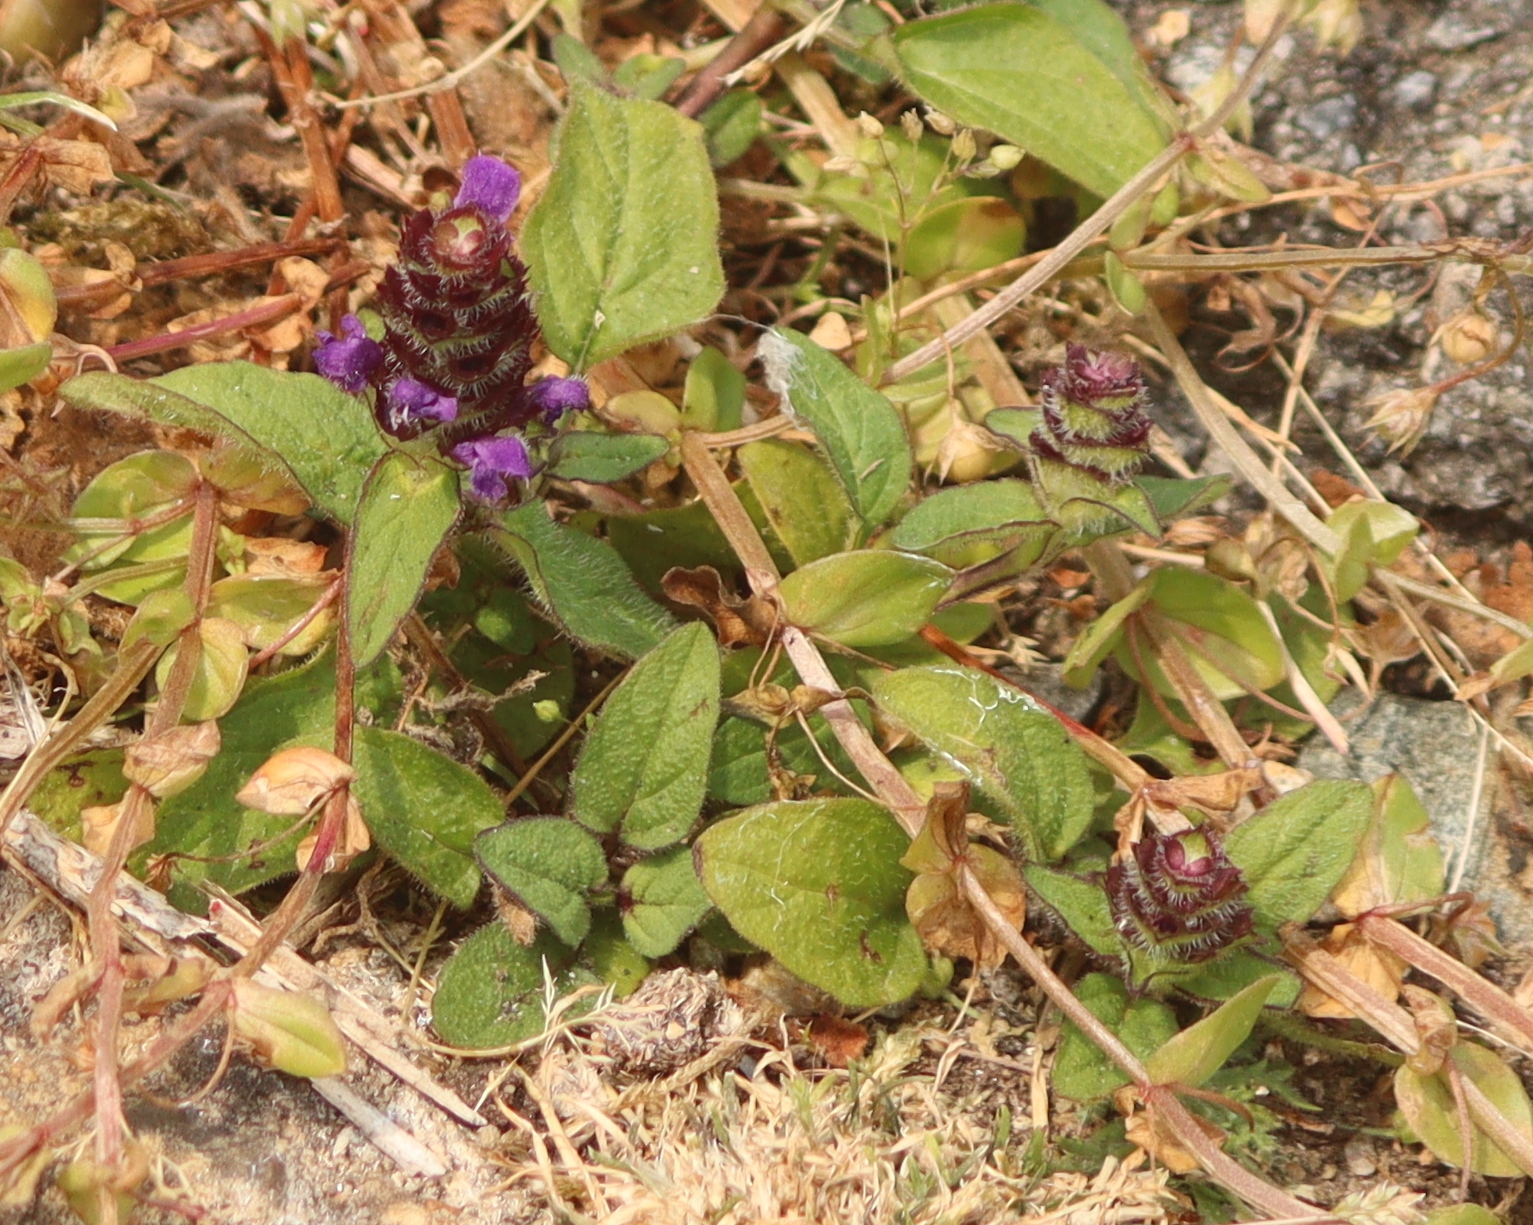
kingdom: Plantae
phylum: Tracheophyta
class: Magnoliopsida
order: Lamiales
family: Lamiaceae
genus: Prunella
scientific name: Prunella vulgaris
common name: Heal-all
